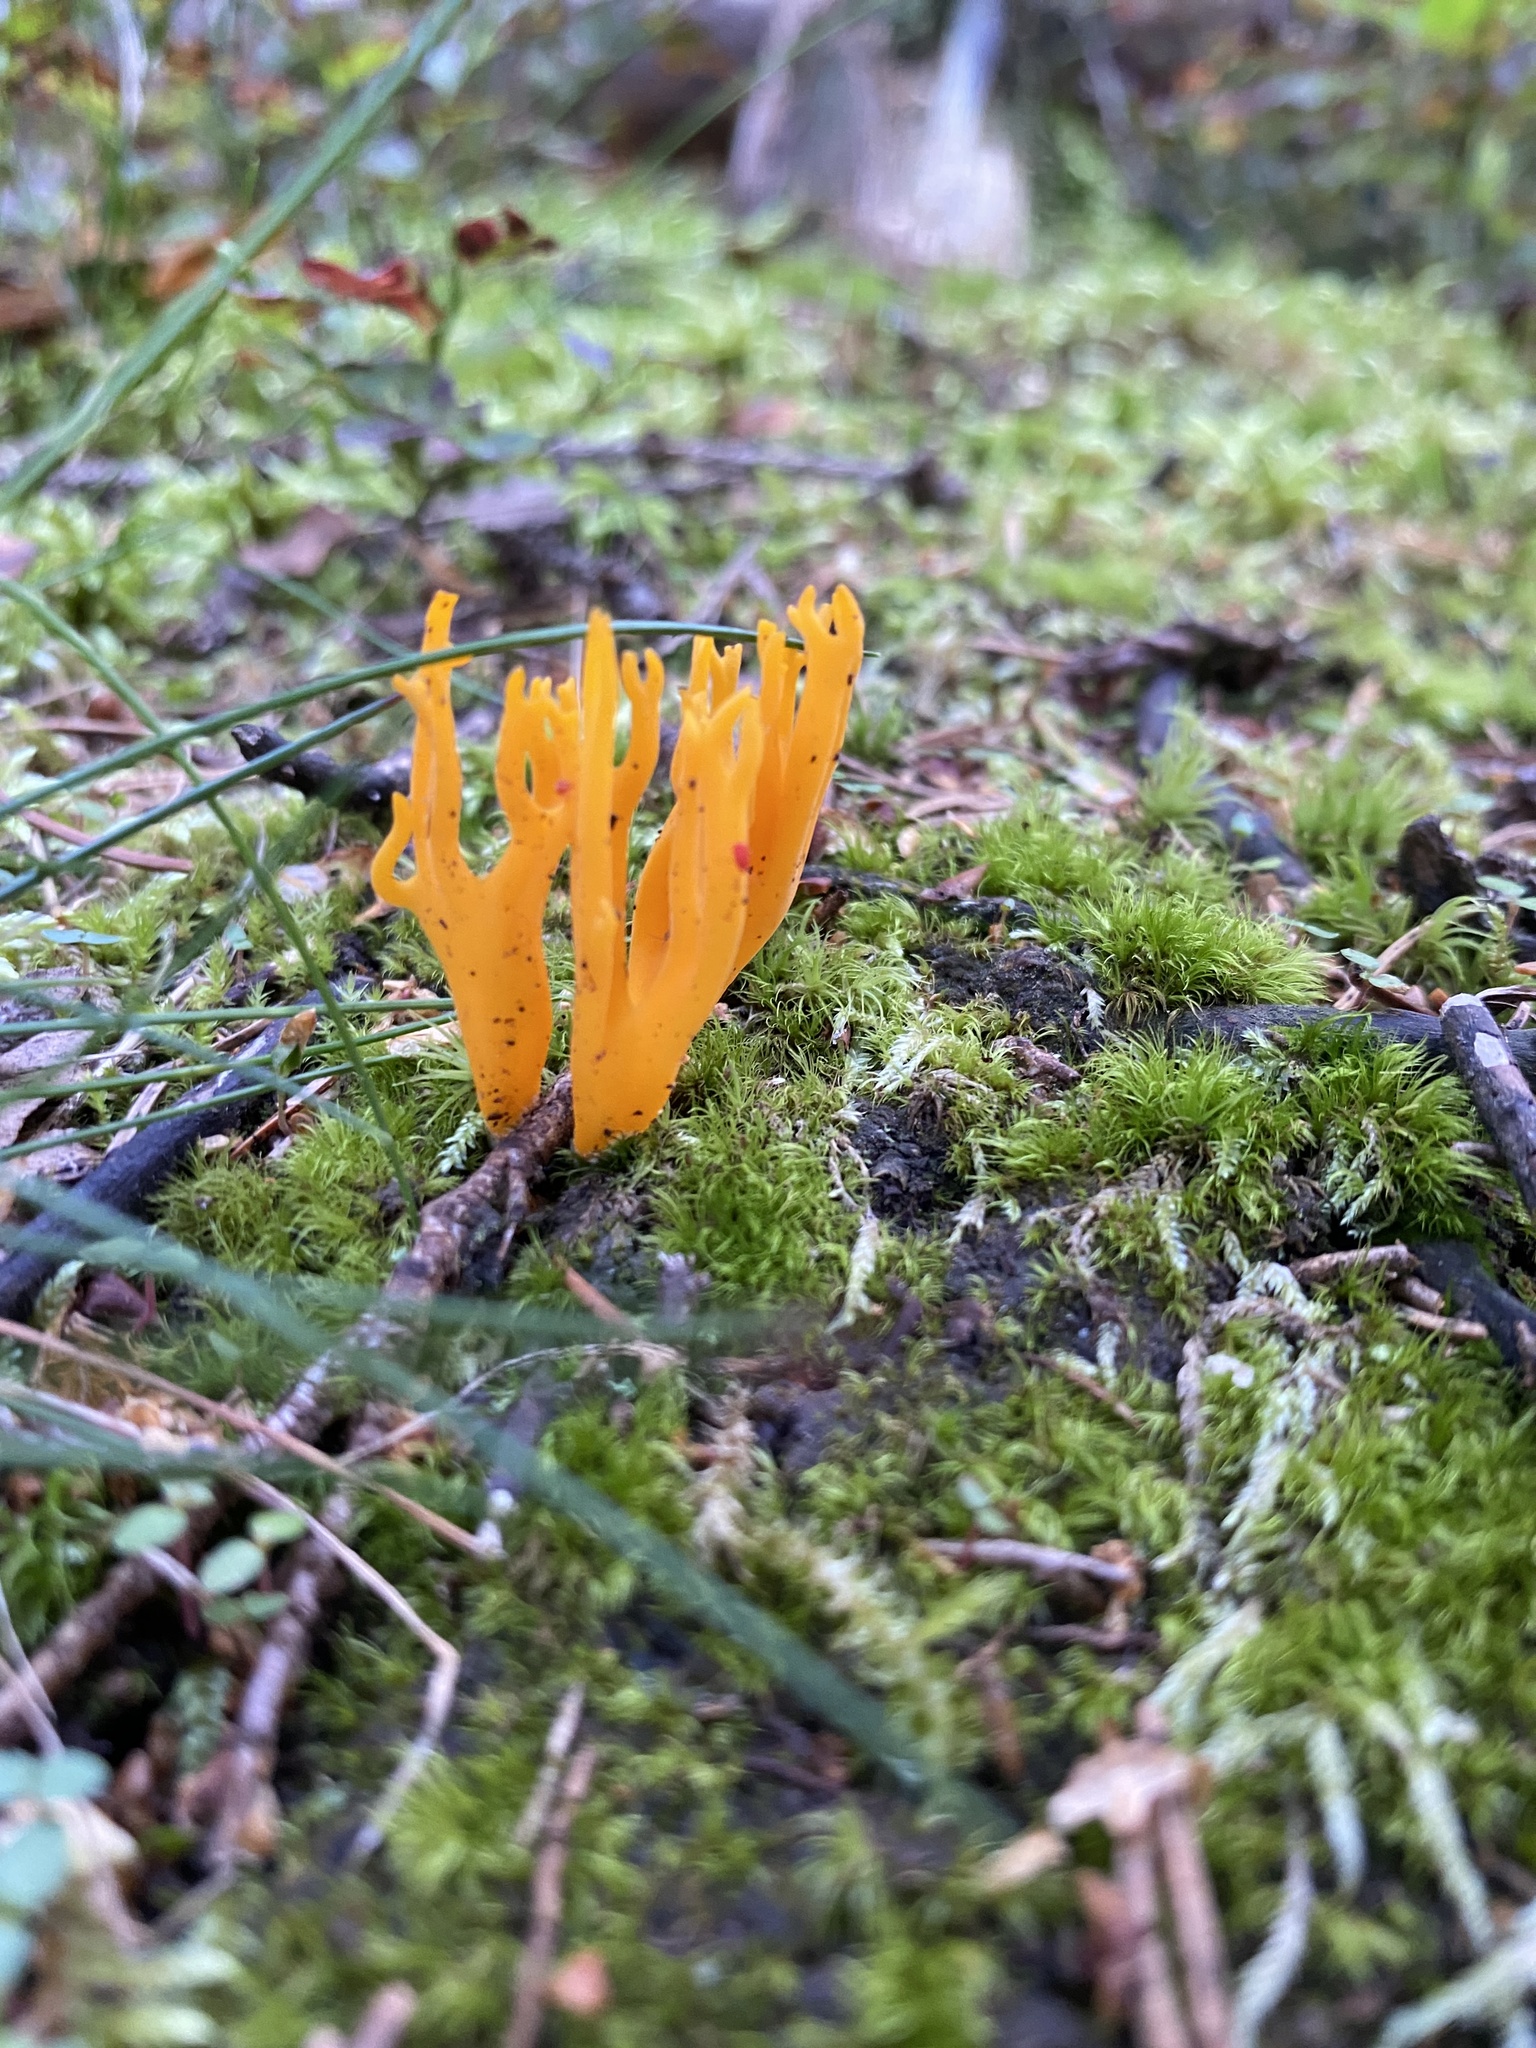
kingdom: Fungi
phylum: Basidiomycota
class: Dacrymycetes
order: Dacrymycetales
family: Dacrymycetaceae
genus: Calocera
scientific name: Calocera viscosa
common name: Yellow stagshorn
